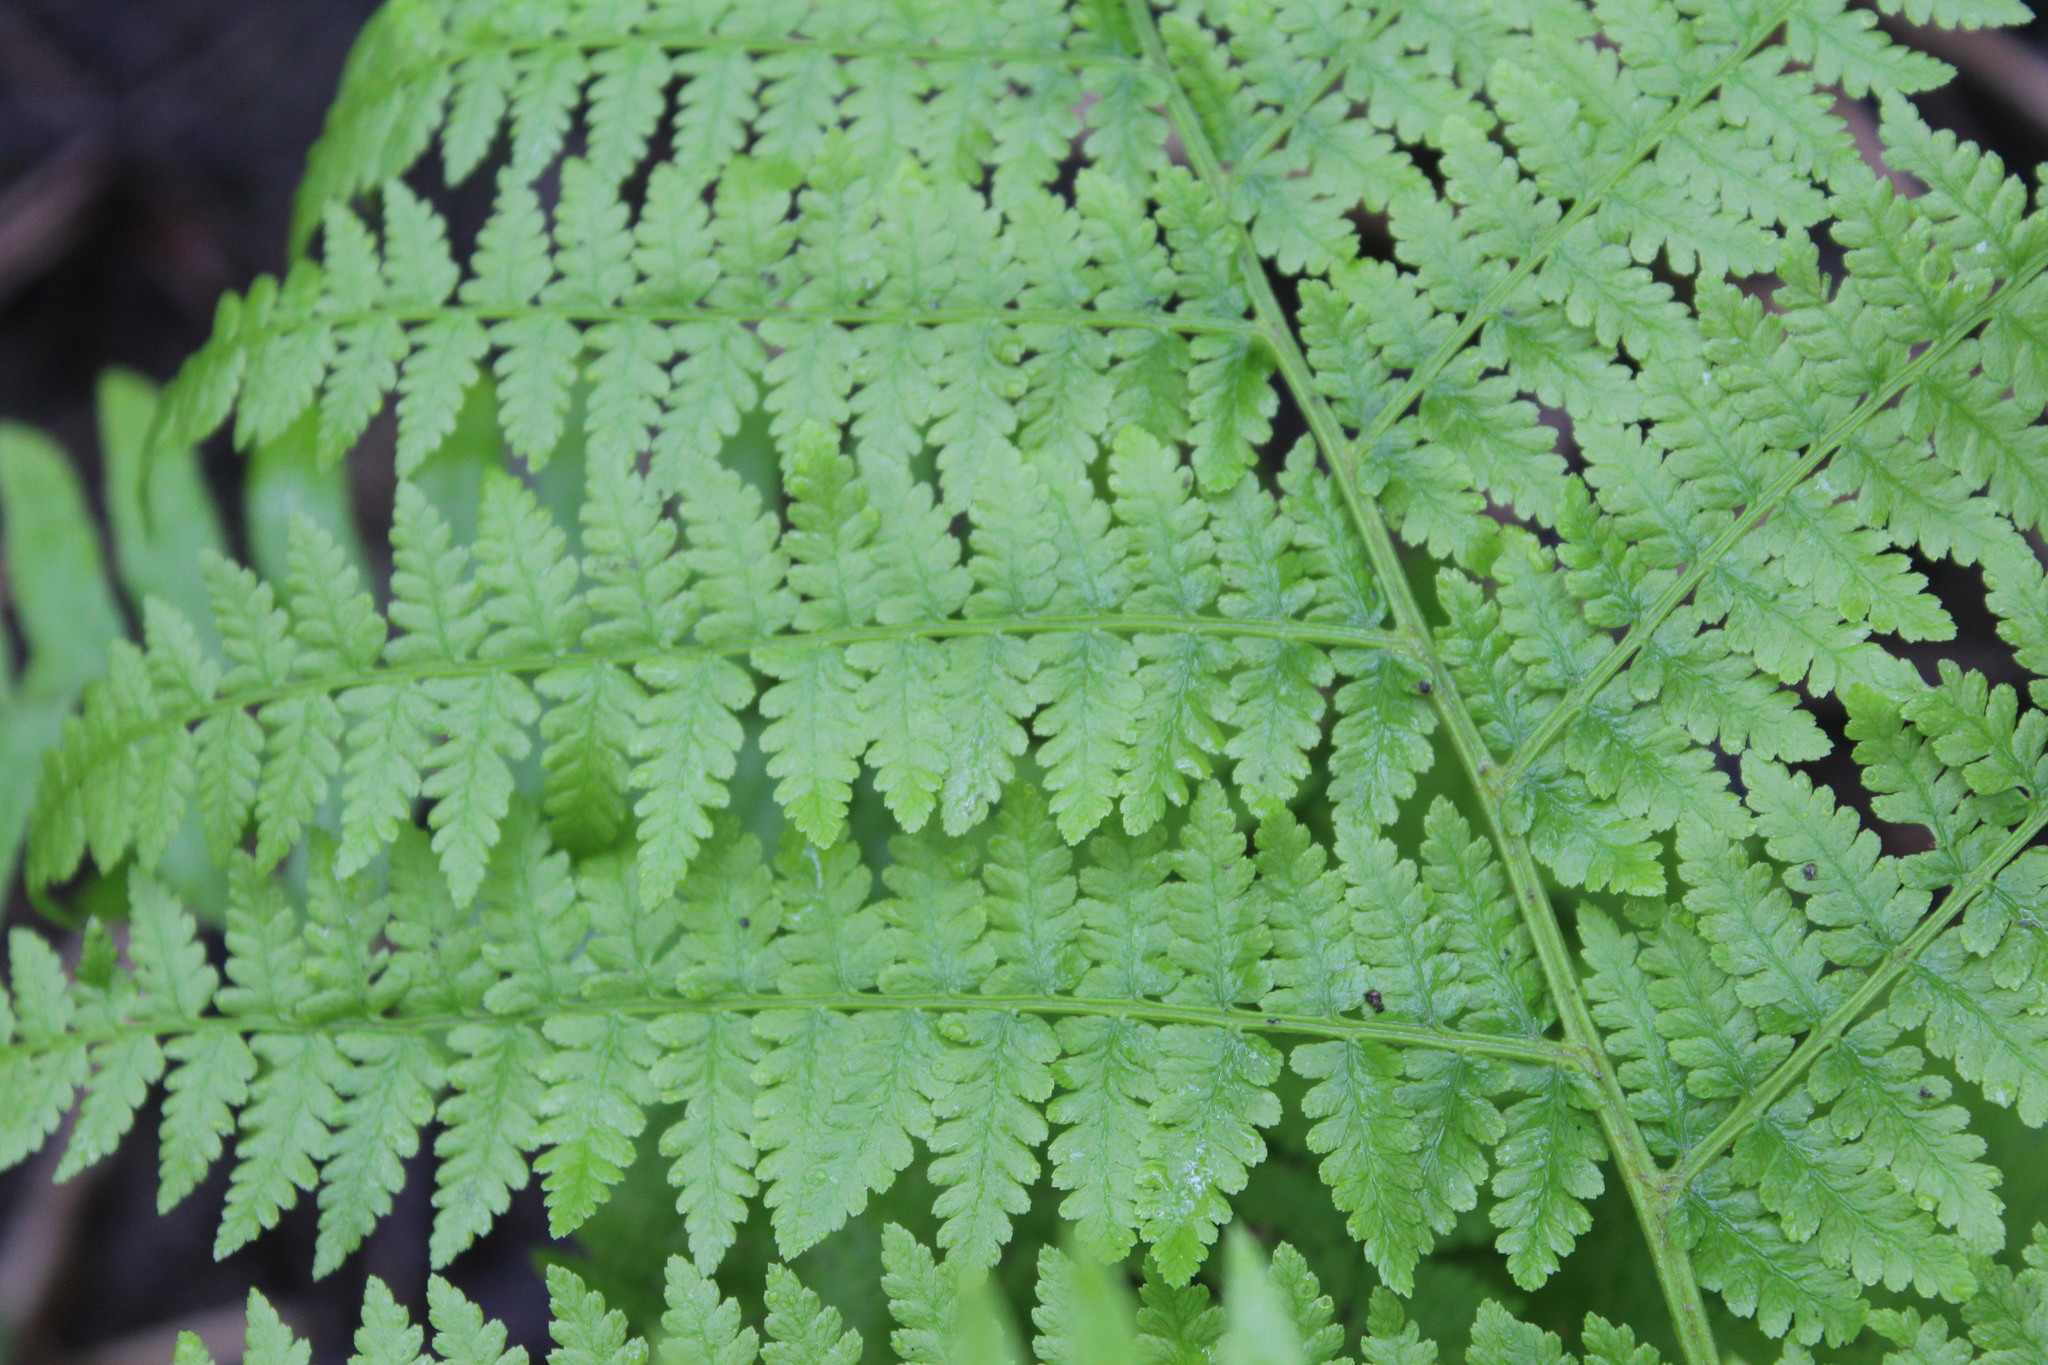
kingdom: Plantae
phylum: Tracheophyta
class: Polypodiopsida
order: Polypodiales
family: Athyriaceae
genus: Athyrium
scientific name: Athyrium filix-femina
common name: Lady fern
